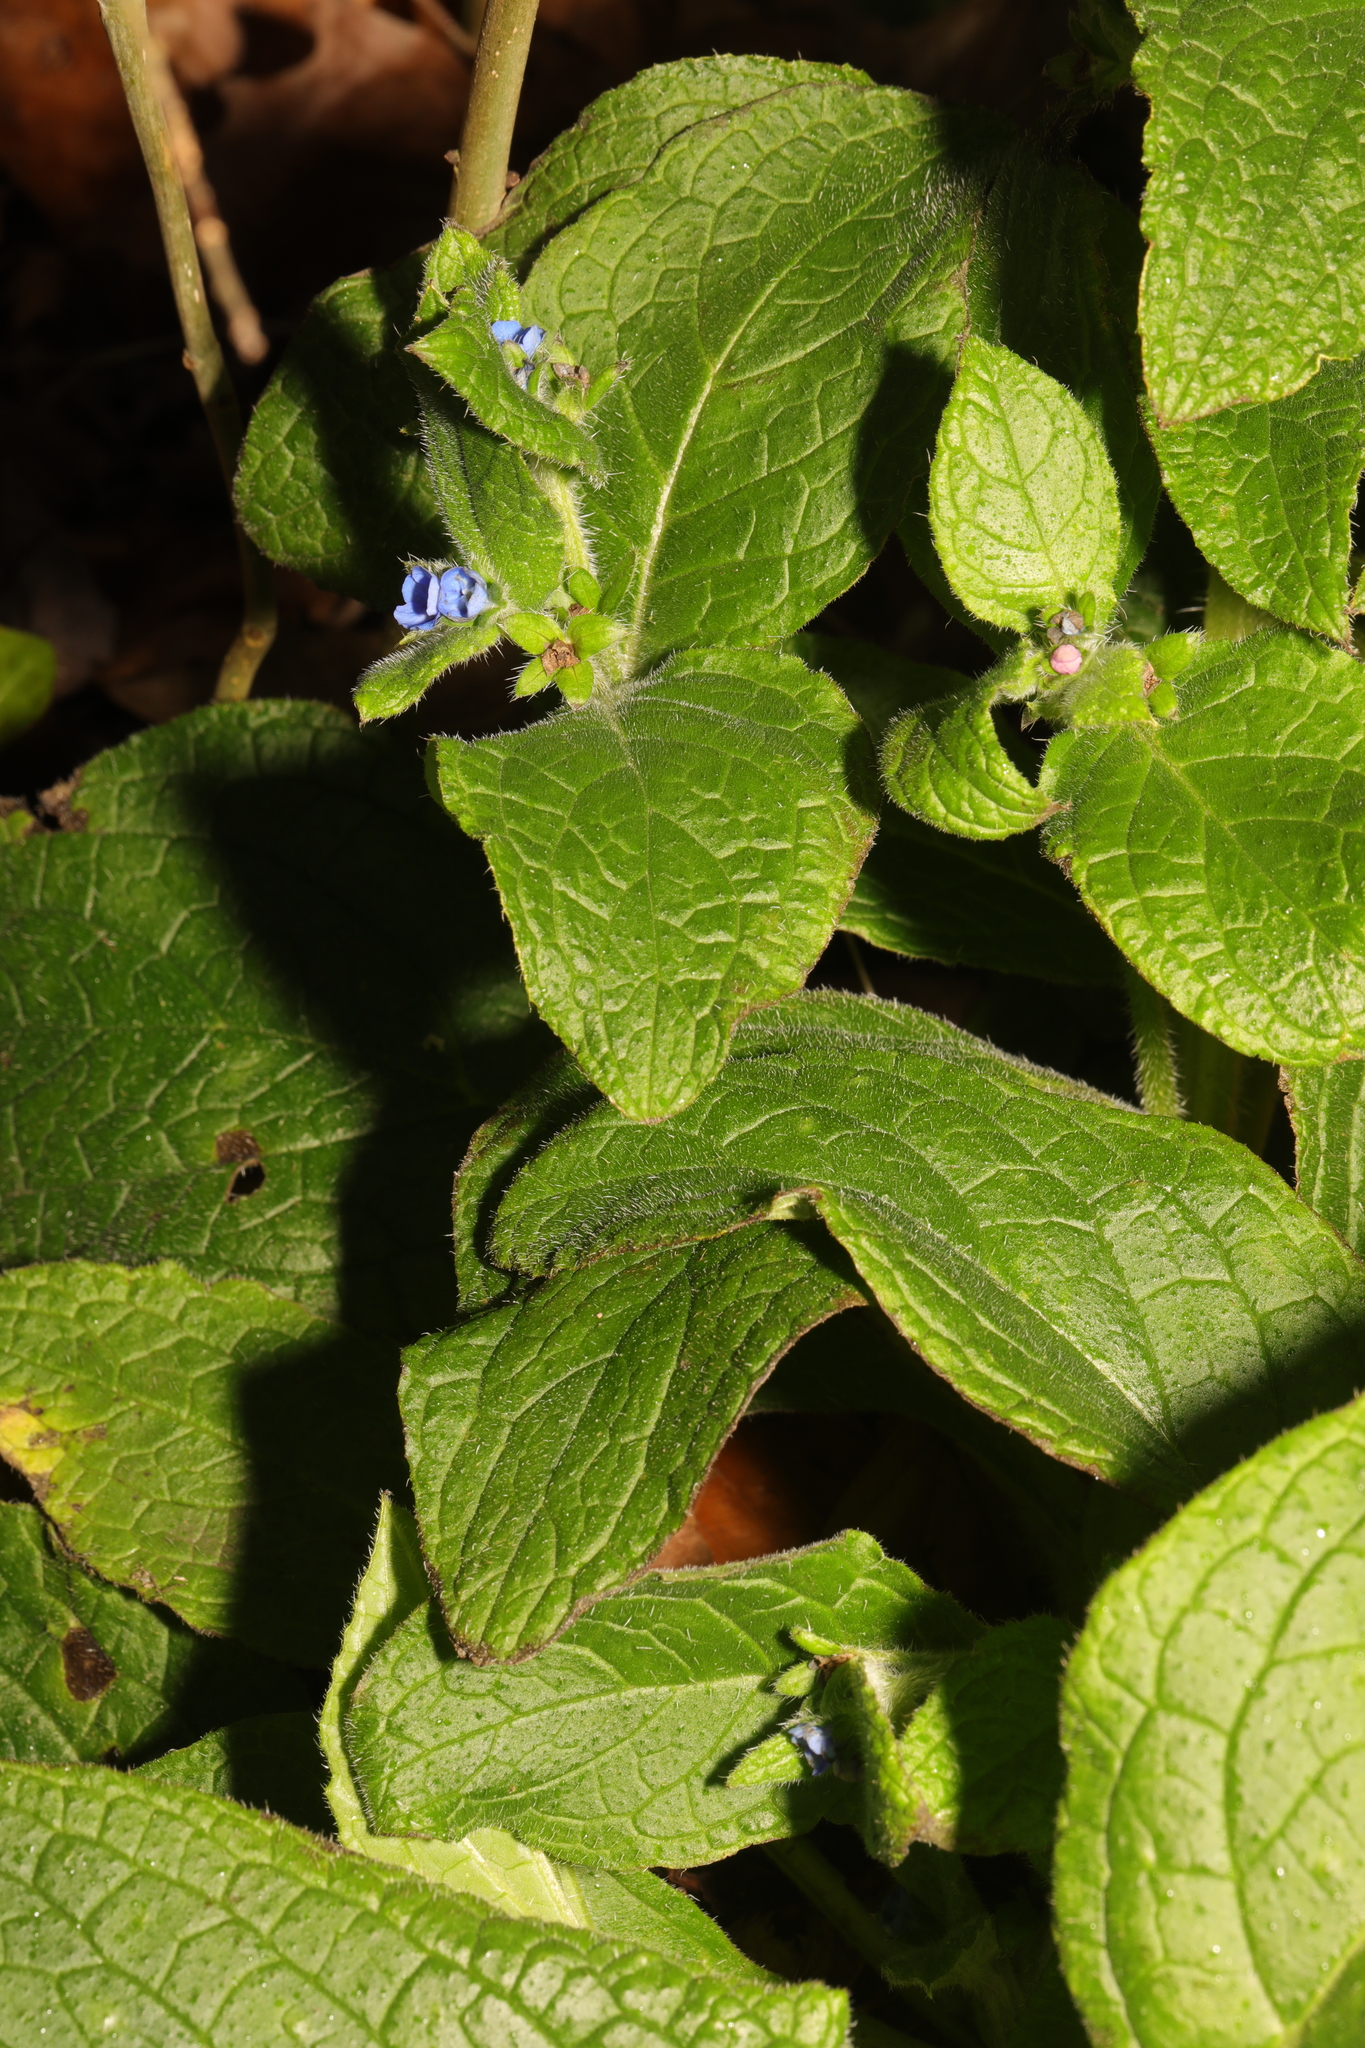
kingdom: Plantae
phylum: Tracheophyta
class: Magnoliopsida
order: Boraginales
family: Boraginaceae
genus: Pentaglottis
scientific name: Pentaglottis sempervirens
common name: Green alkanet
